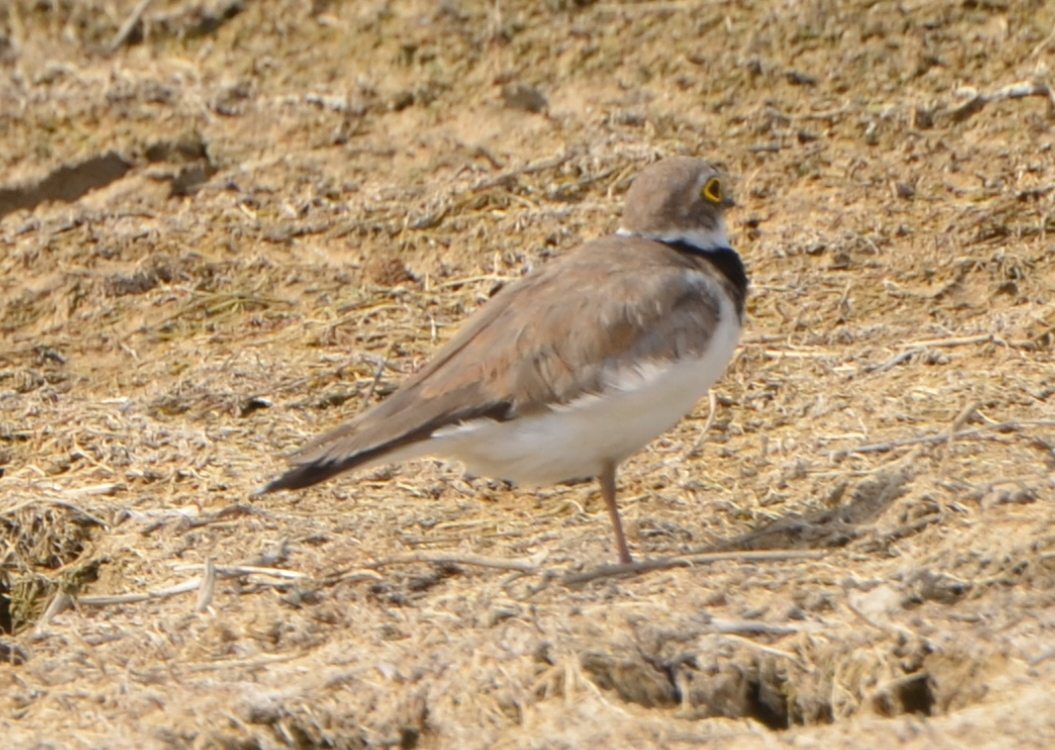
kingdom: Animalia
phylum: Chordata
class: Aves
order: Charadriiformes
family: Charadriidae
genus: Charadrius
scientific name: Charadrius dubius
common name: Little ringed plover
